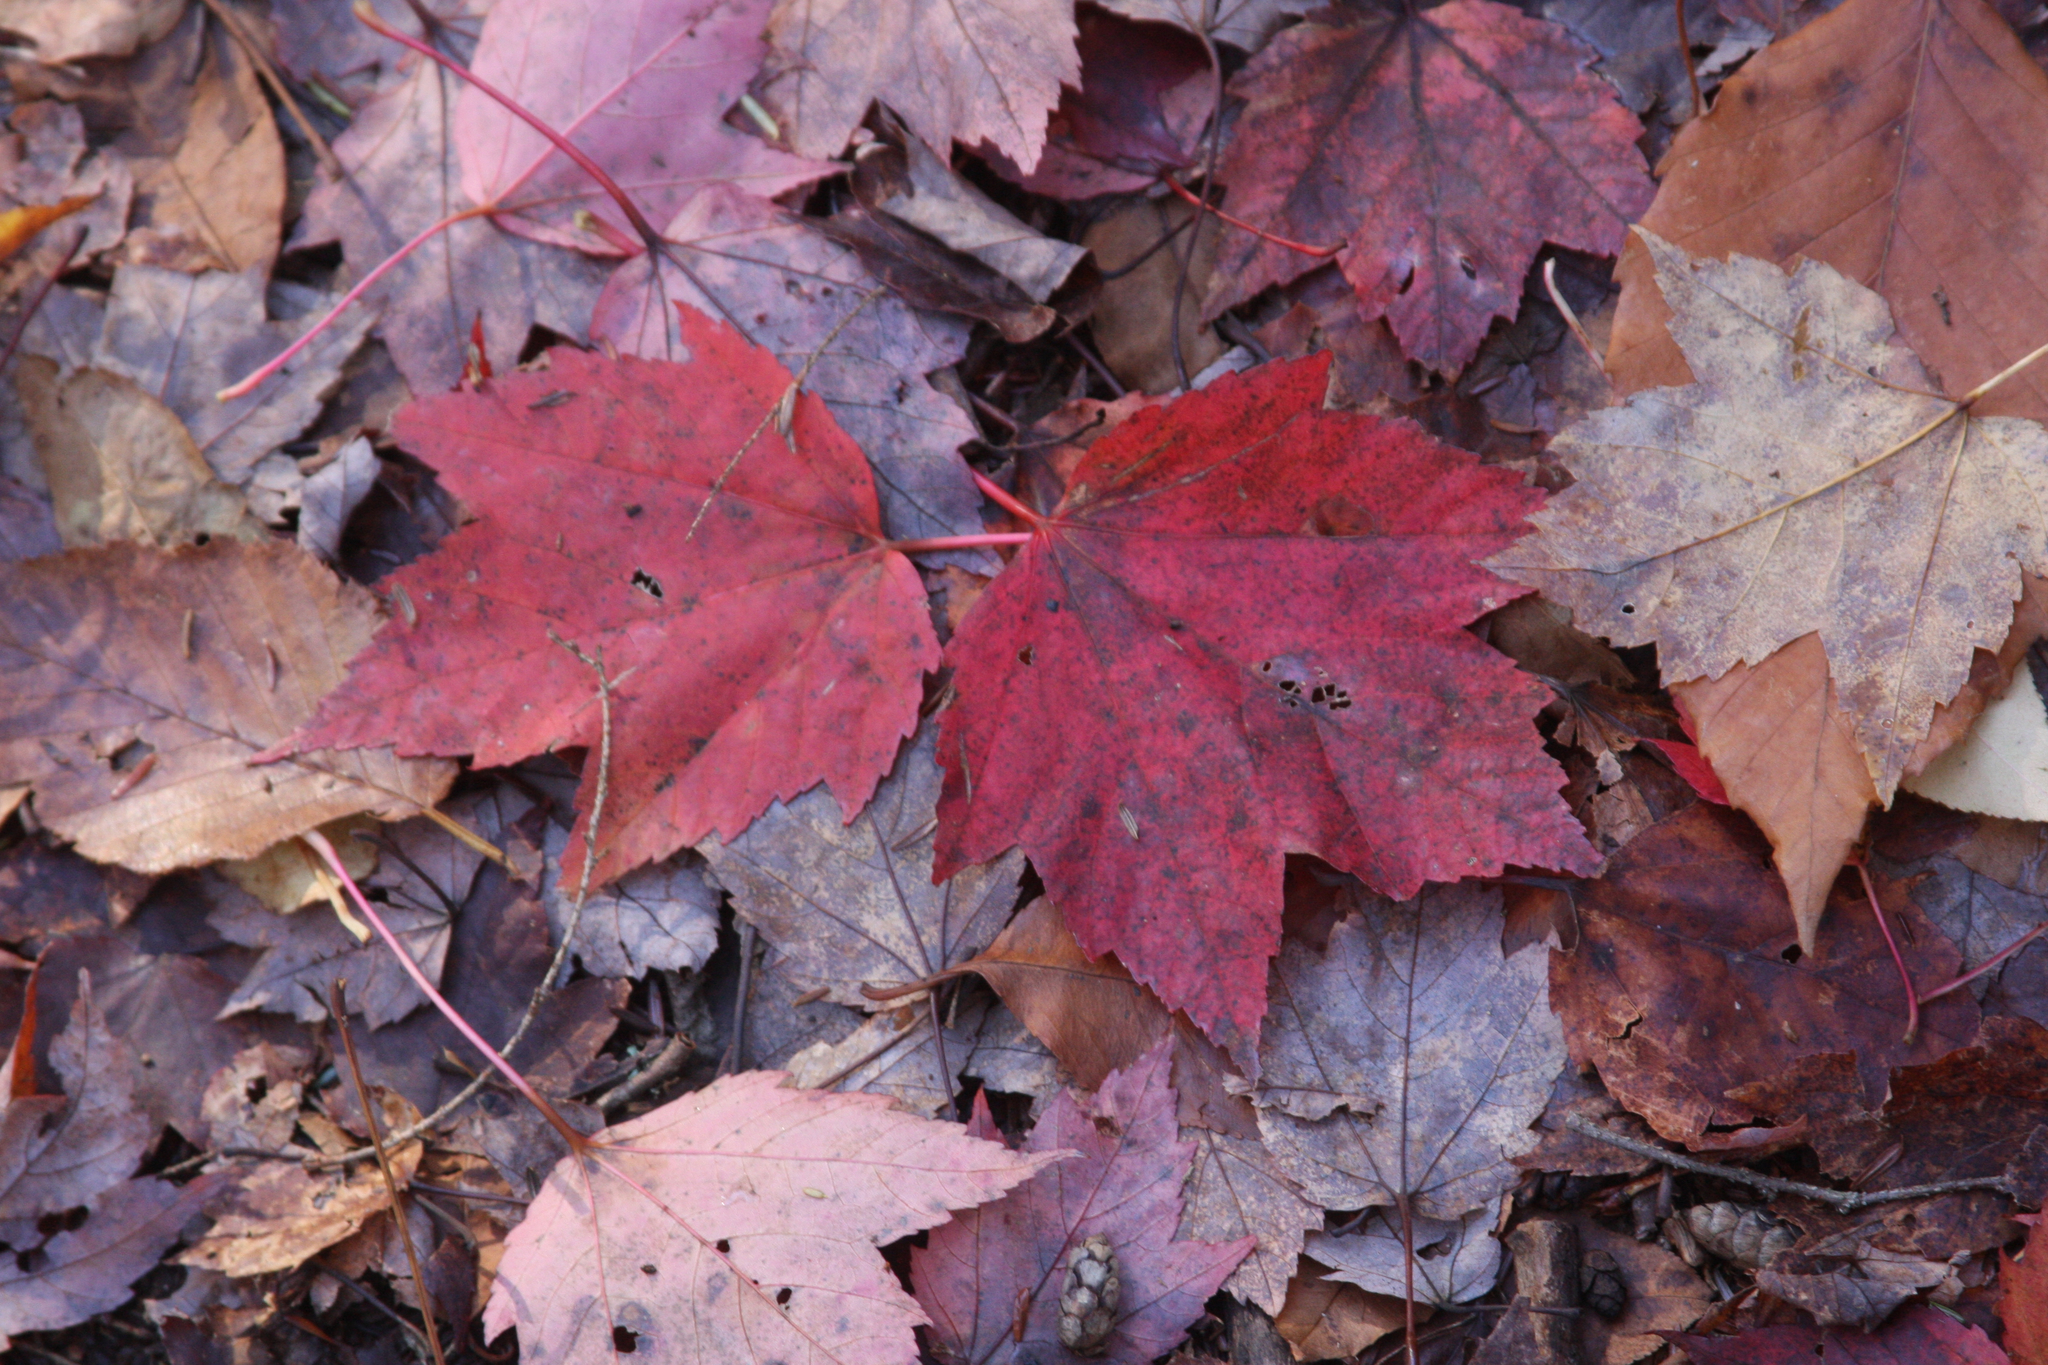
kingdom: Plantae
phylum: Tracheophyta
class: Magnoliopsida
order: Sapindales
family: Sapindaceae
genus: Acer
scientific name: Acer rubrum
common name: Red maple
